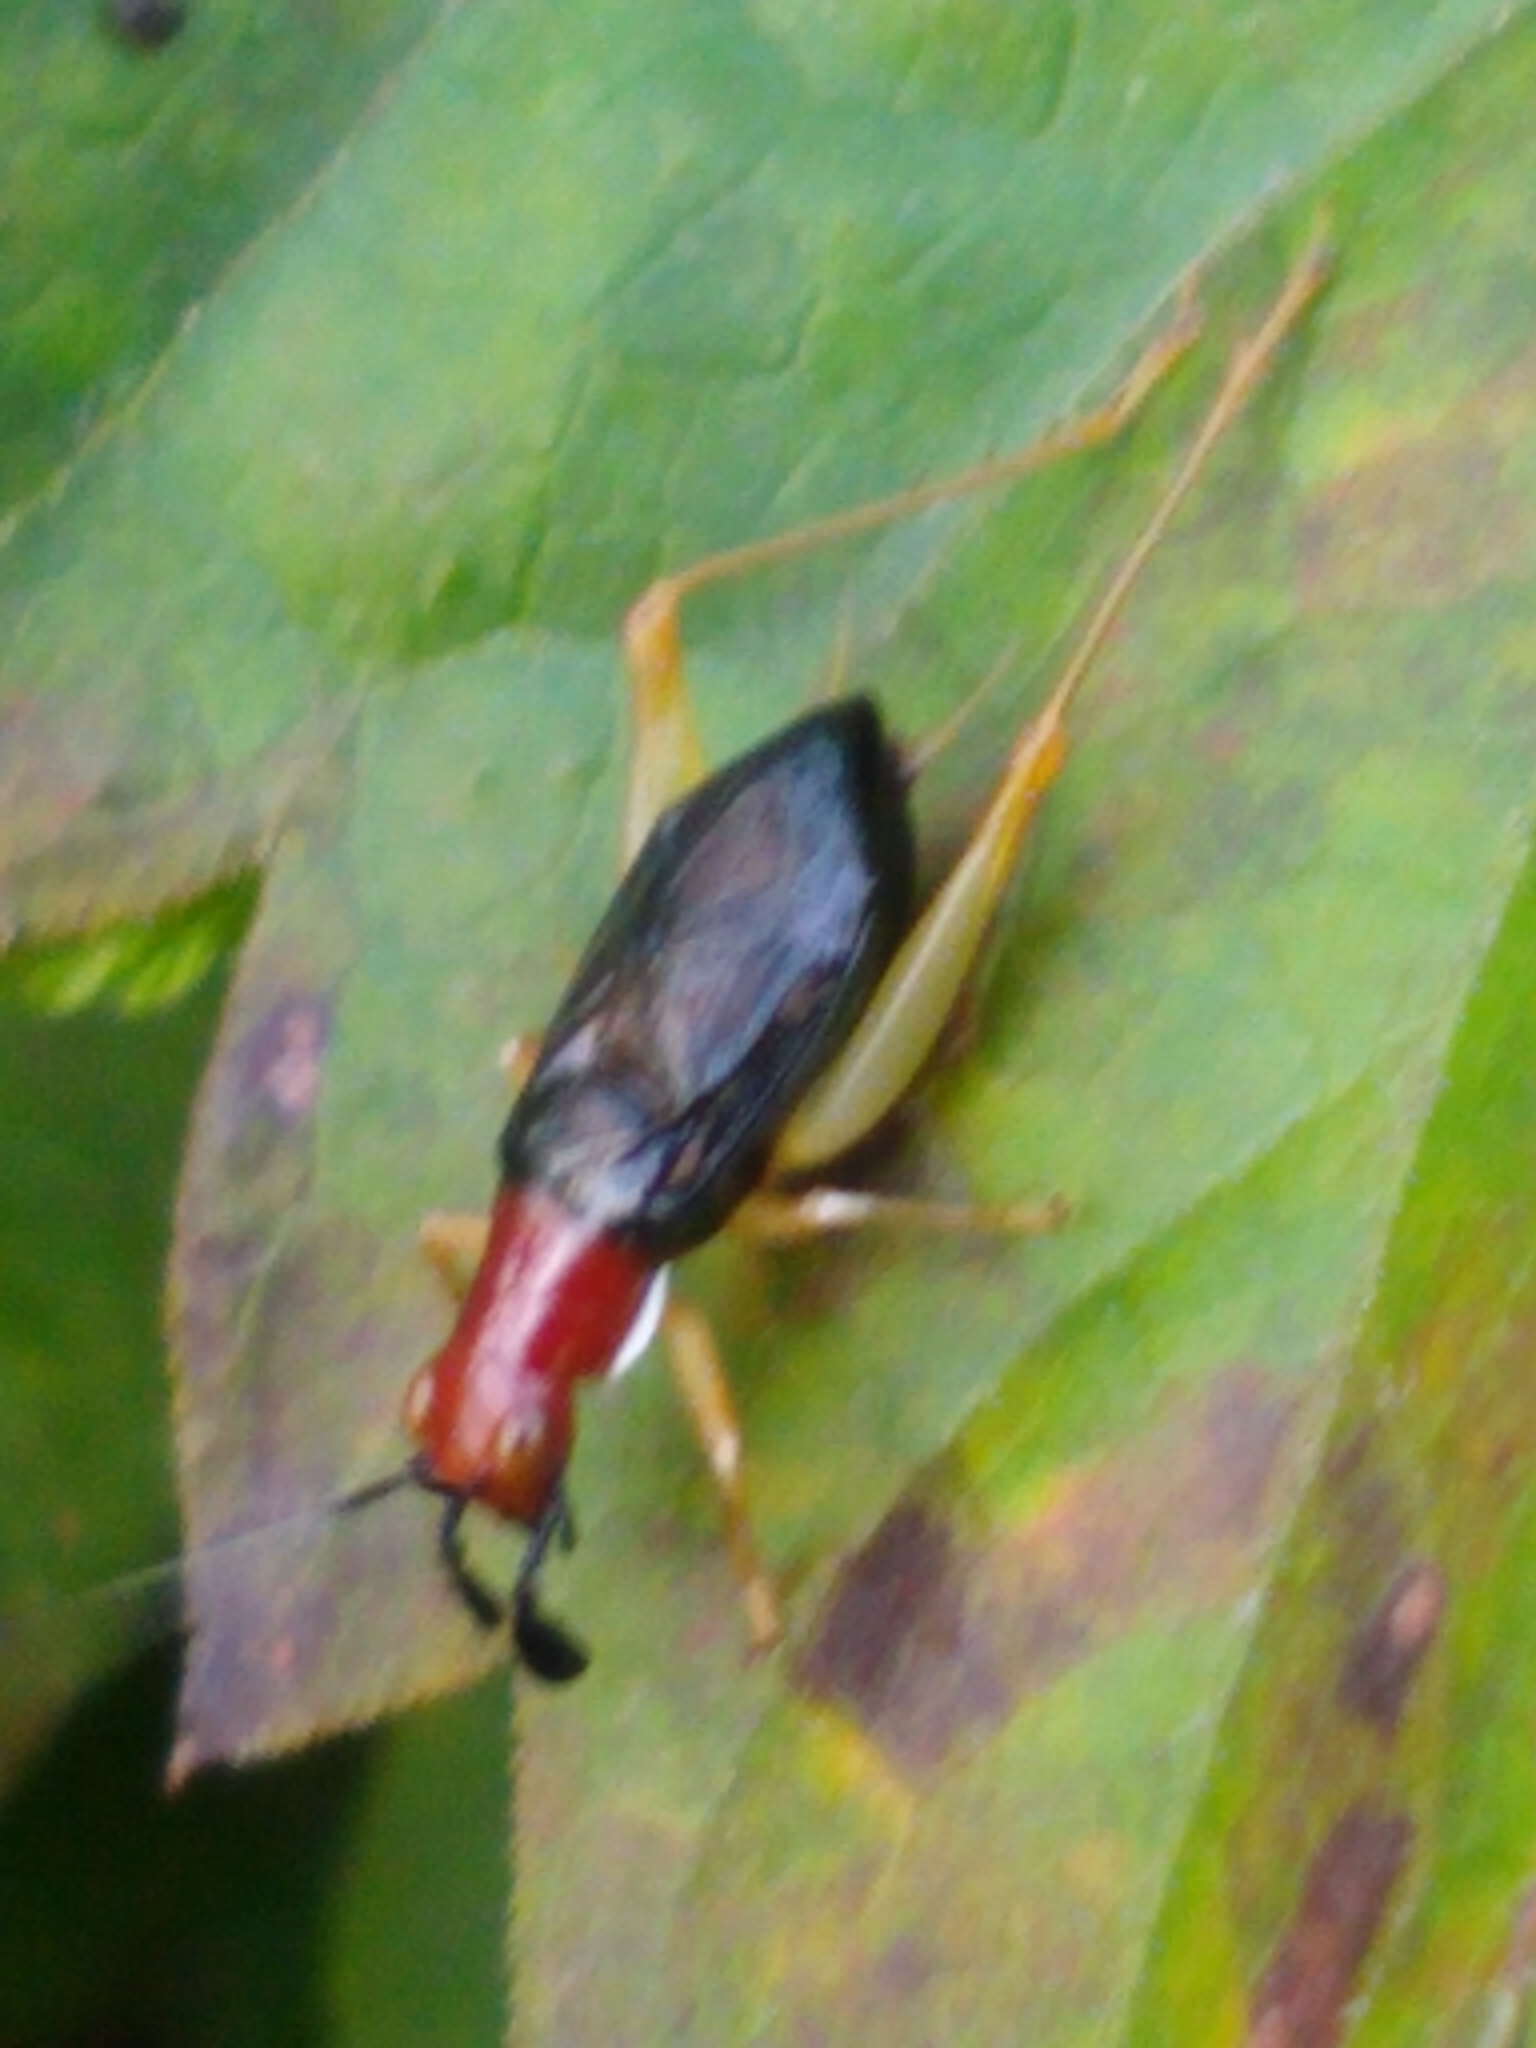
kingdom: Animalia
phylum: Arthropoda
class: Insecta
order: Orthoptera
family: Trigonidiidae
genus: Phyllopalpus
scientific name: Phyllopalpus pulchellus
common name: Handsome trig
